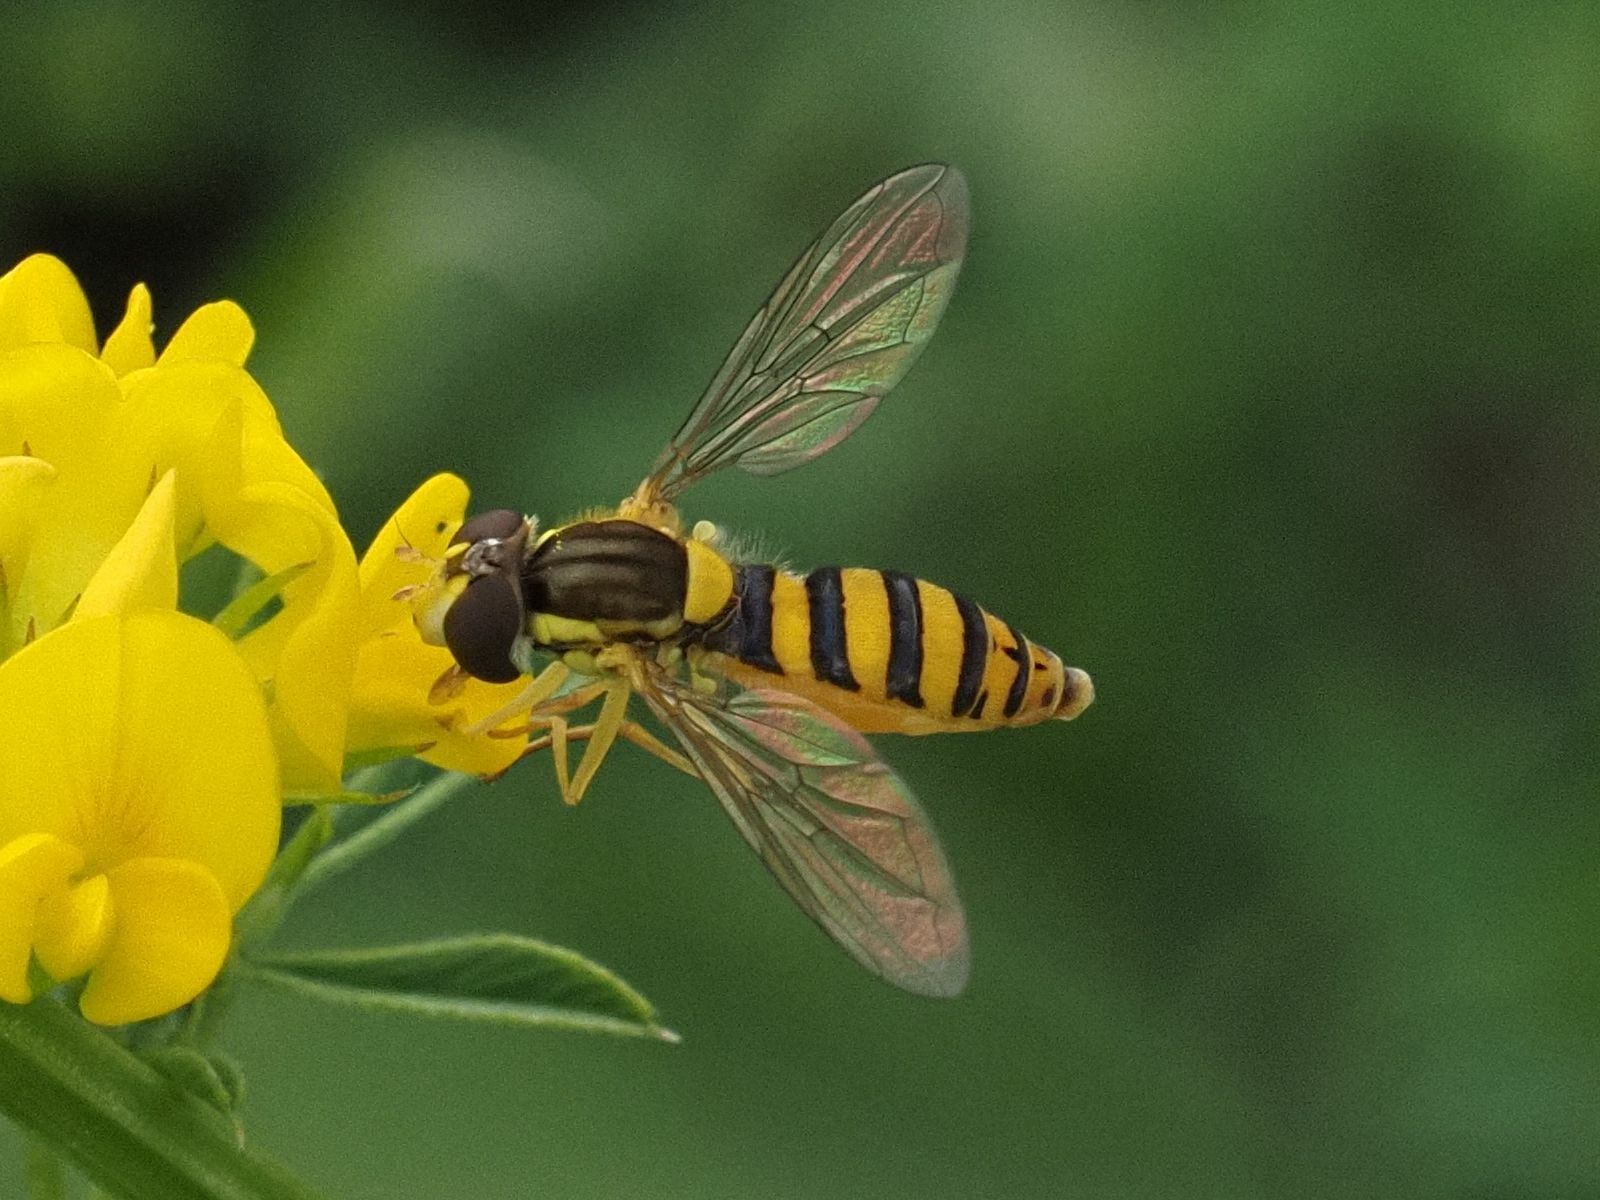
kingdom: Animalia
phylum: Arthropoda
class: Insecta
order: Diptera
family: Syrphidae
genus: Sphaerophoria
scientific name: Sphaerophoria
